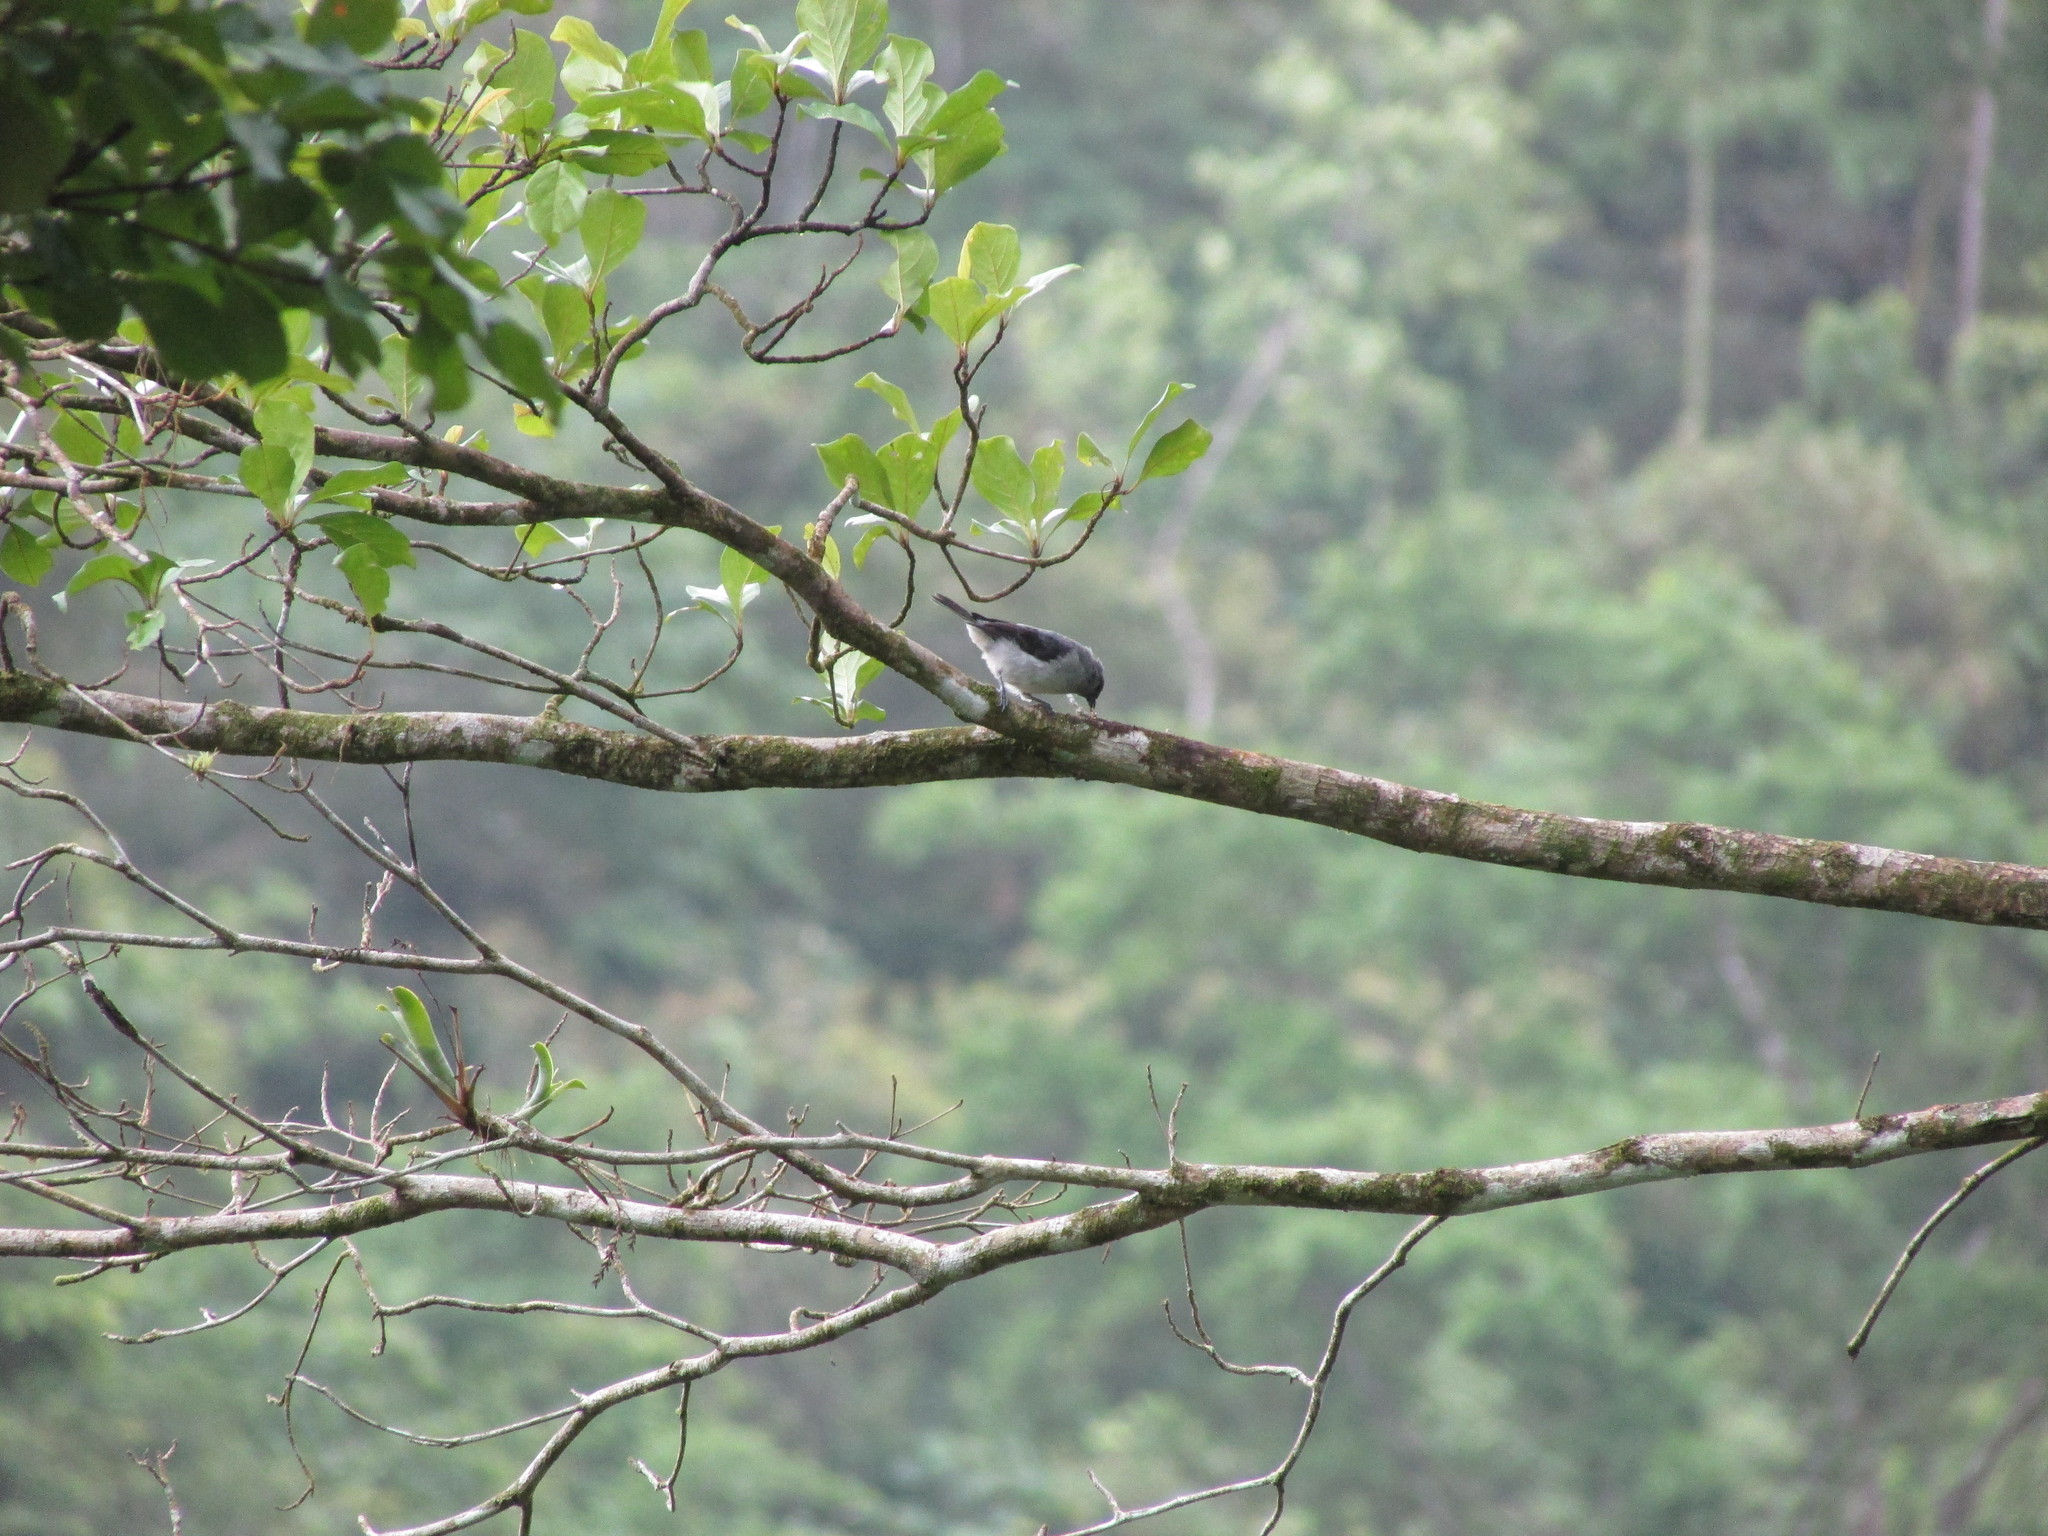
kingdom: Animalia
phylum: Chordata
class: Aves
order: Passeriformes
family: Thraupidae
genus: Tangara
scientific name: Tangara inornata
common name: Plain-colored tanager
